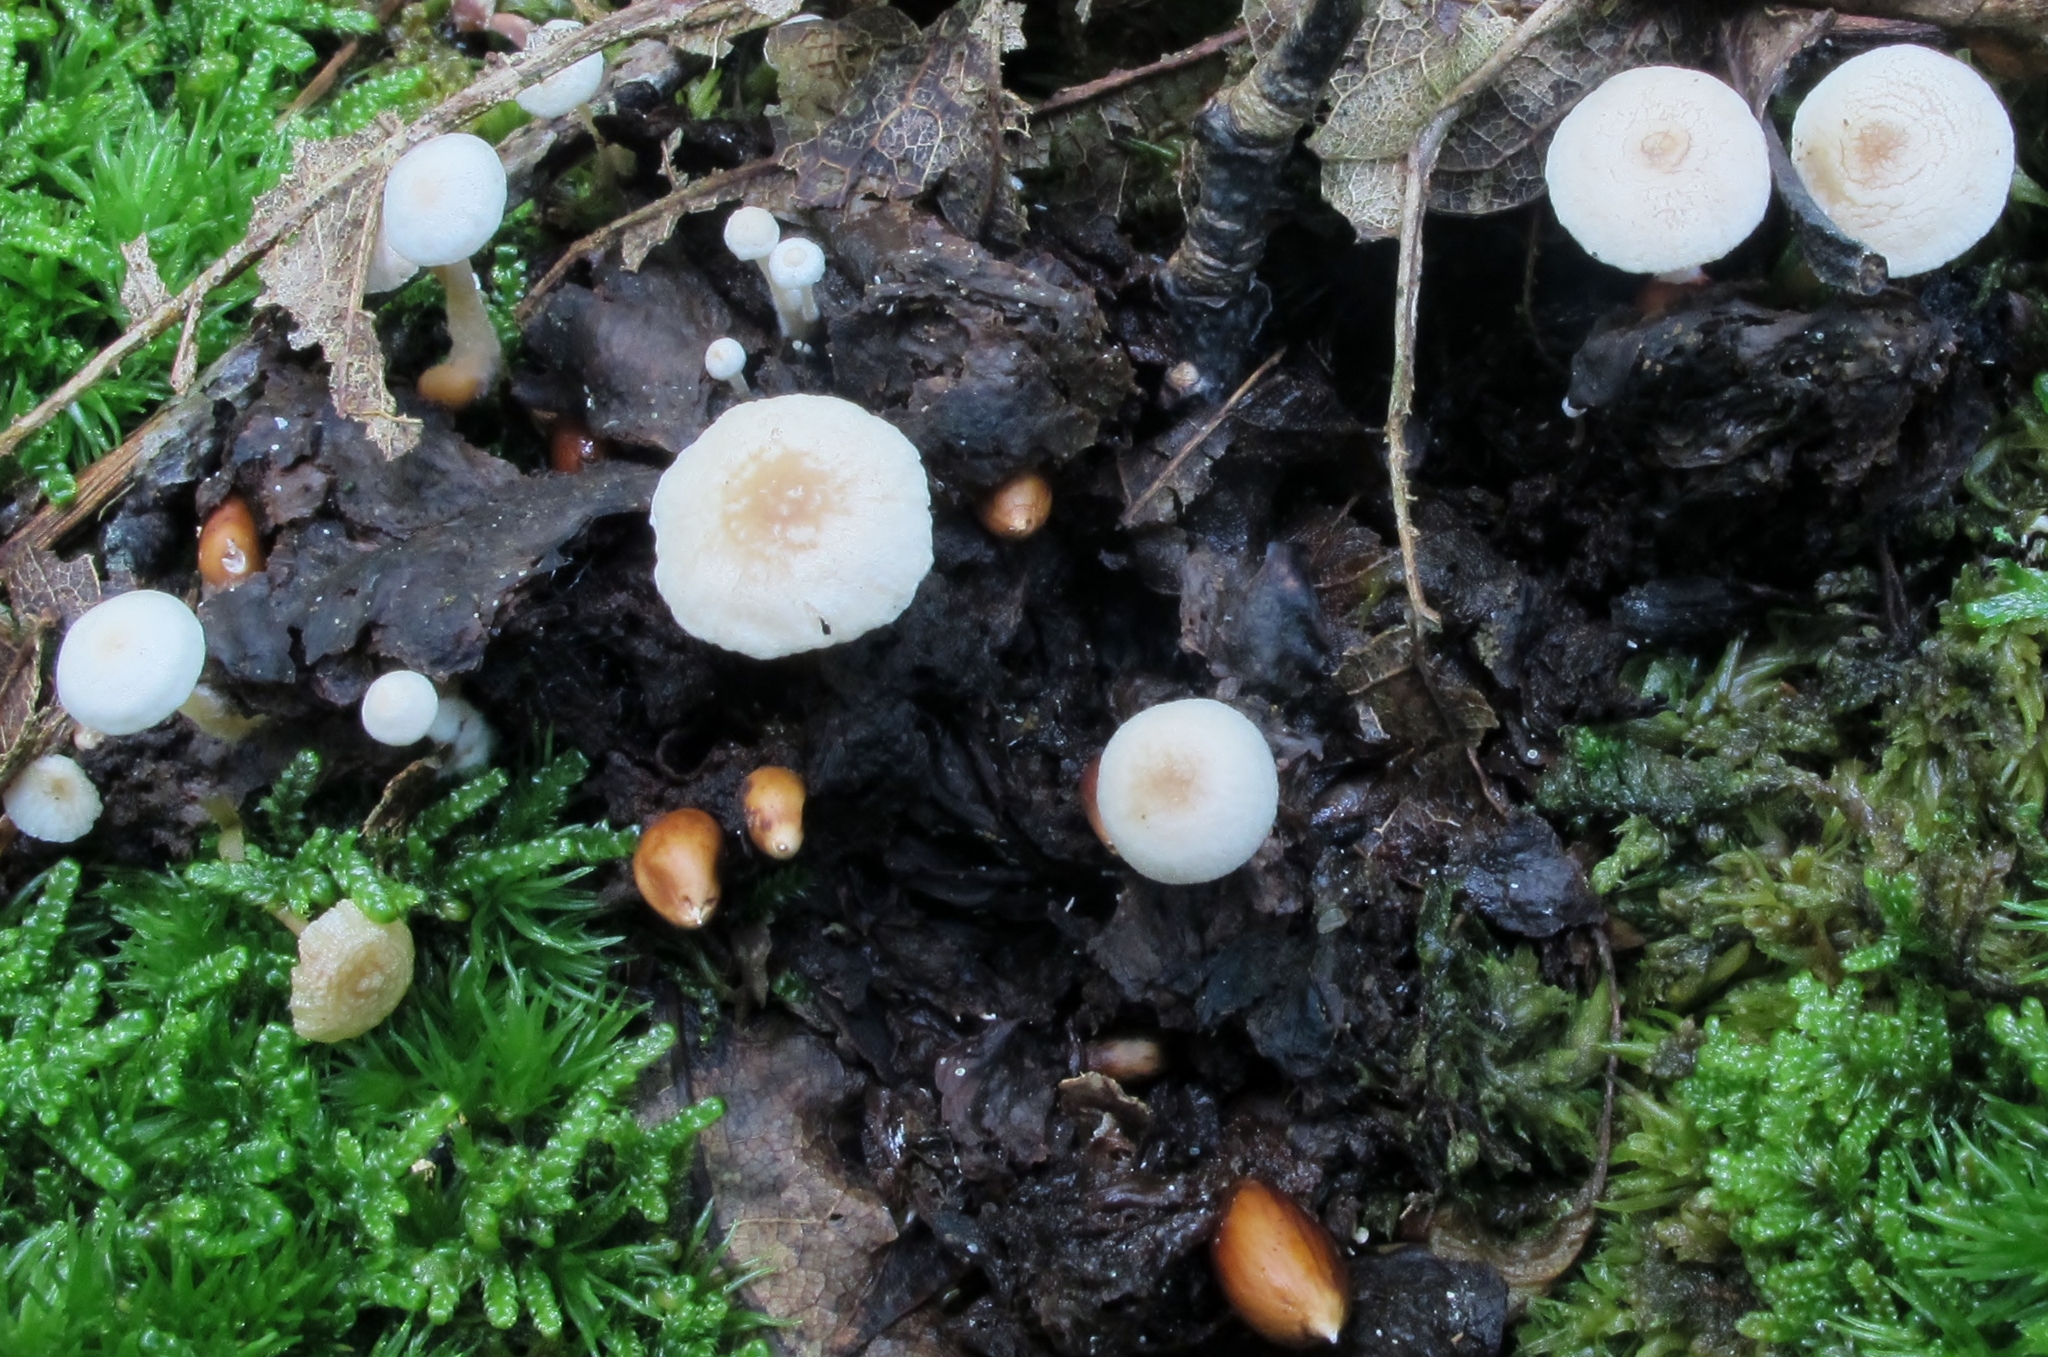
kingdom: Fungi
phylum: Basidiomycota
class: Agaricomycetes
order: Agaricales
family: Tricholomataceae
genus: Collybia
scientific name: Collybia tuberosa
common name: Lentil shanklet
